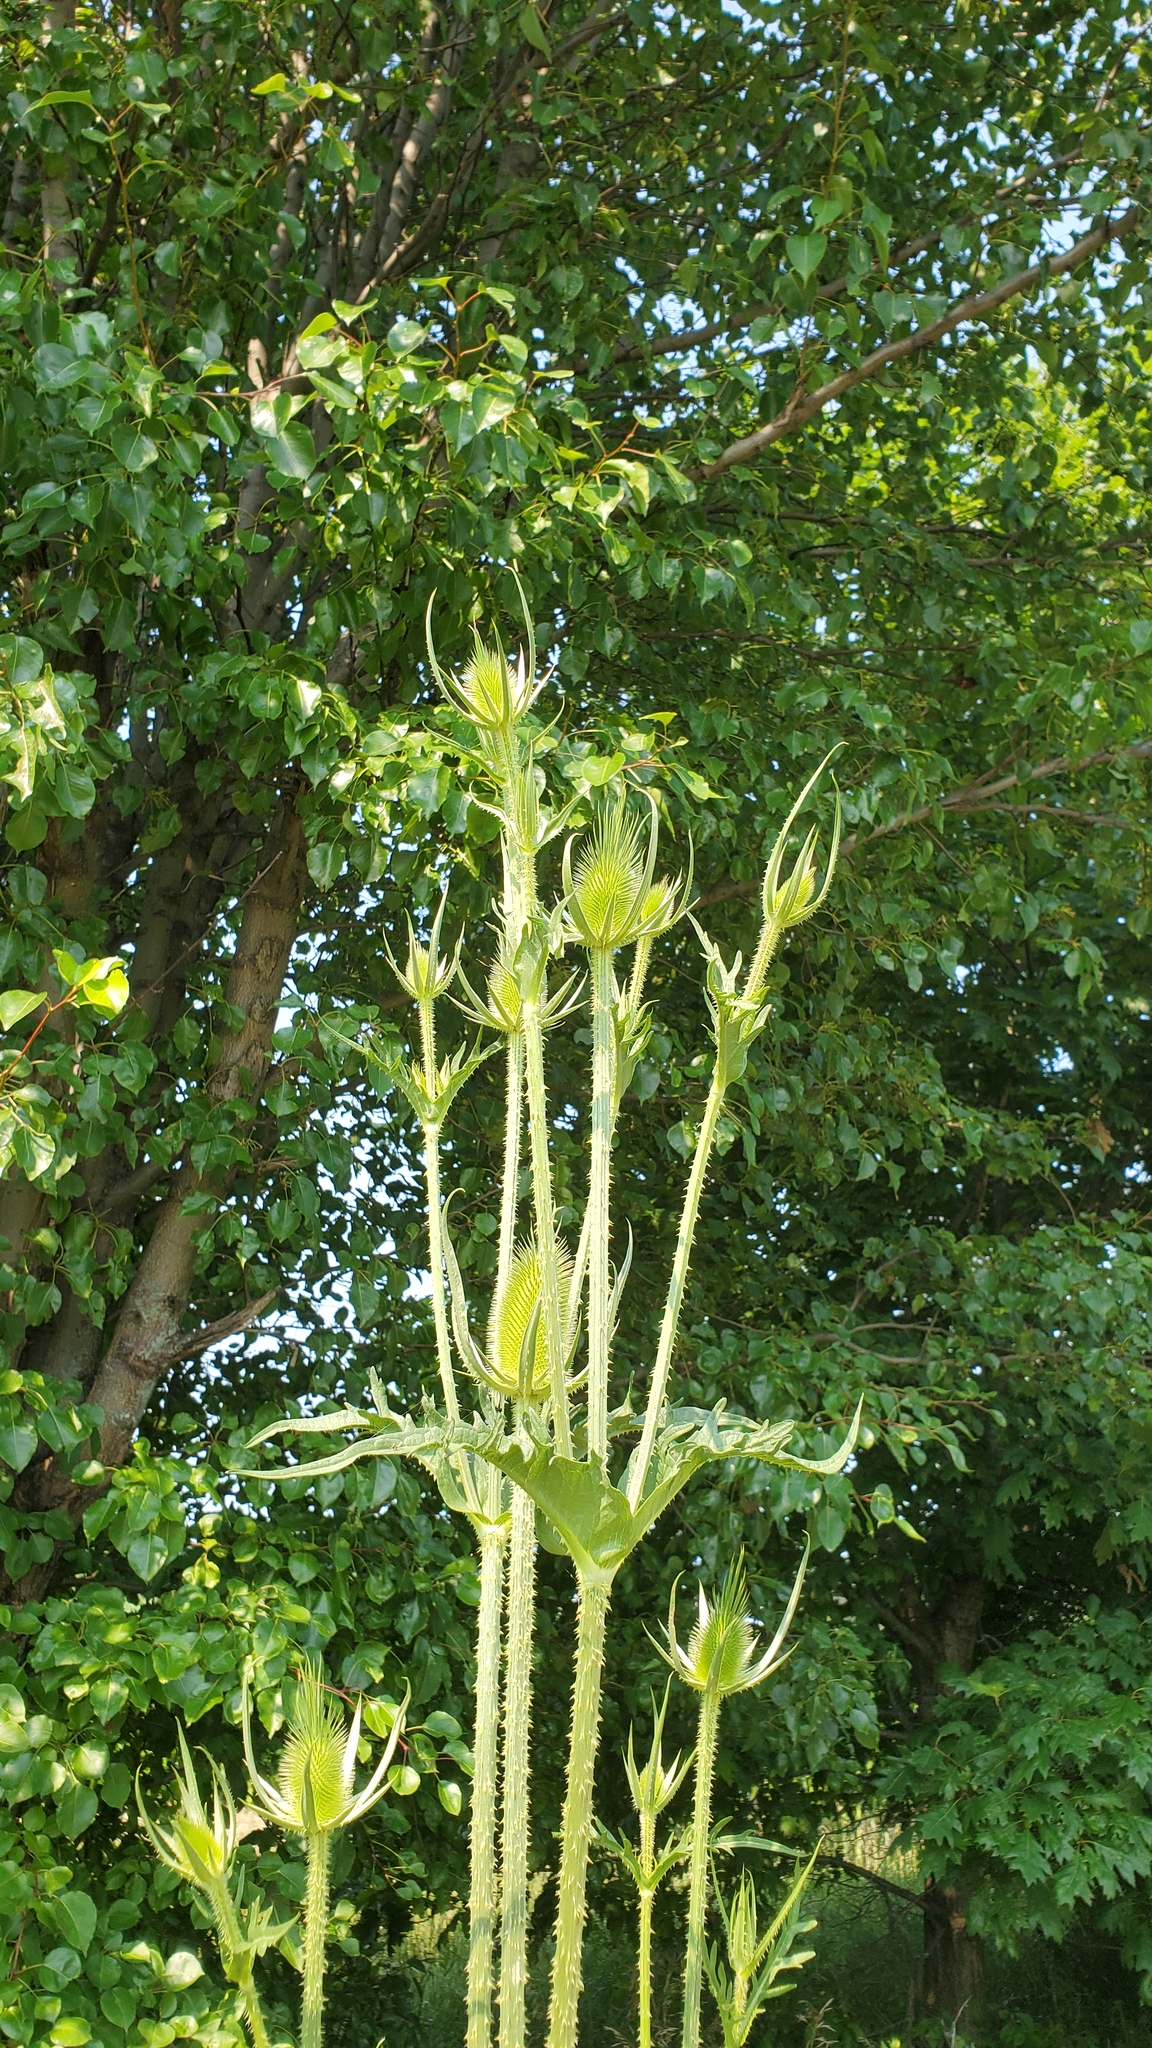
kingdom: Plantae
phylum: Tracheophyta
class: Magnoliopsida
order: Dipsacales
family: Caprifoliaceae
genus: Dipsacus
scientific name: Dipsacus laciniatus
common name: Cut-leaved teasel
